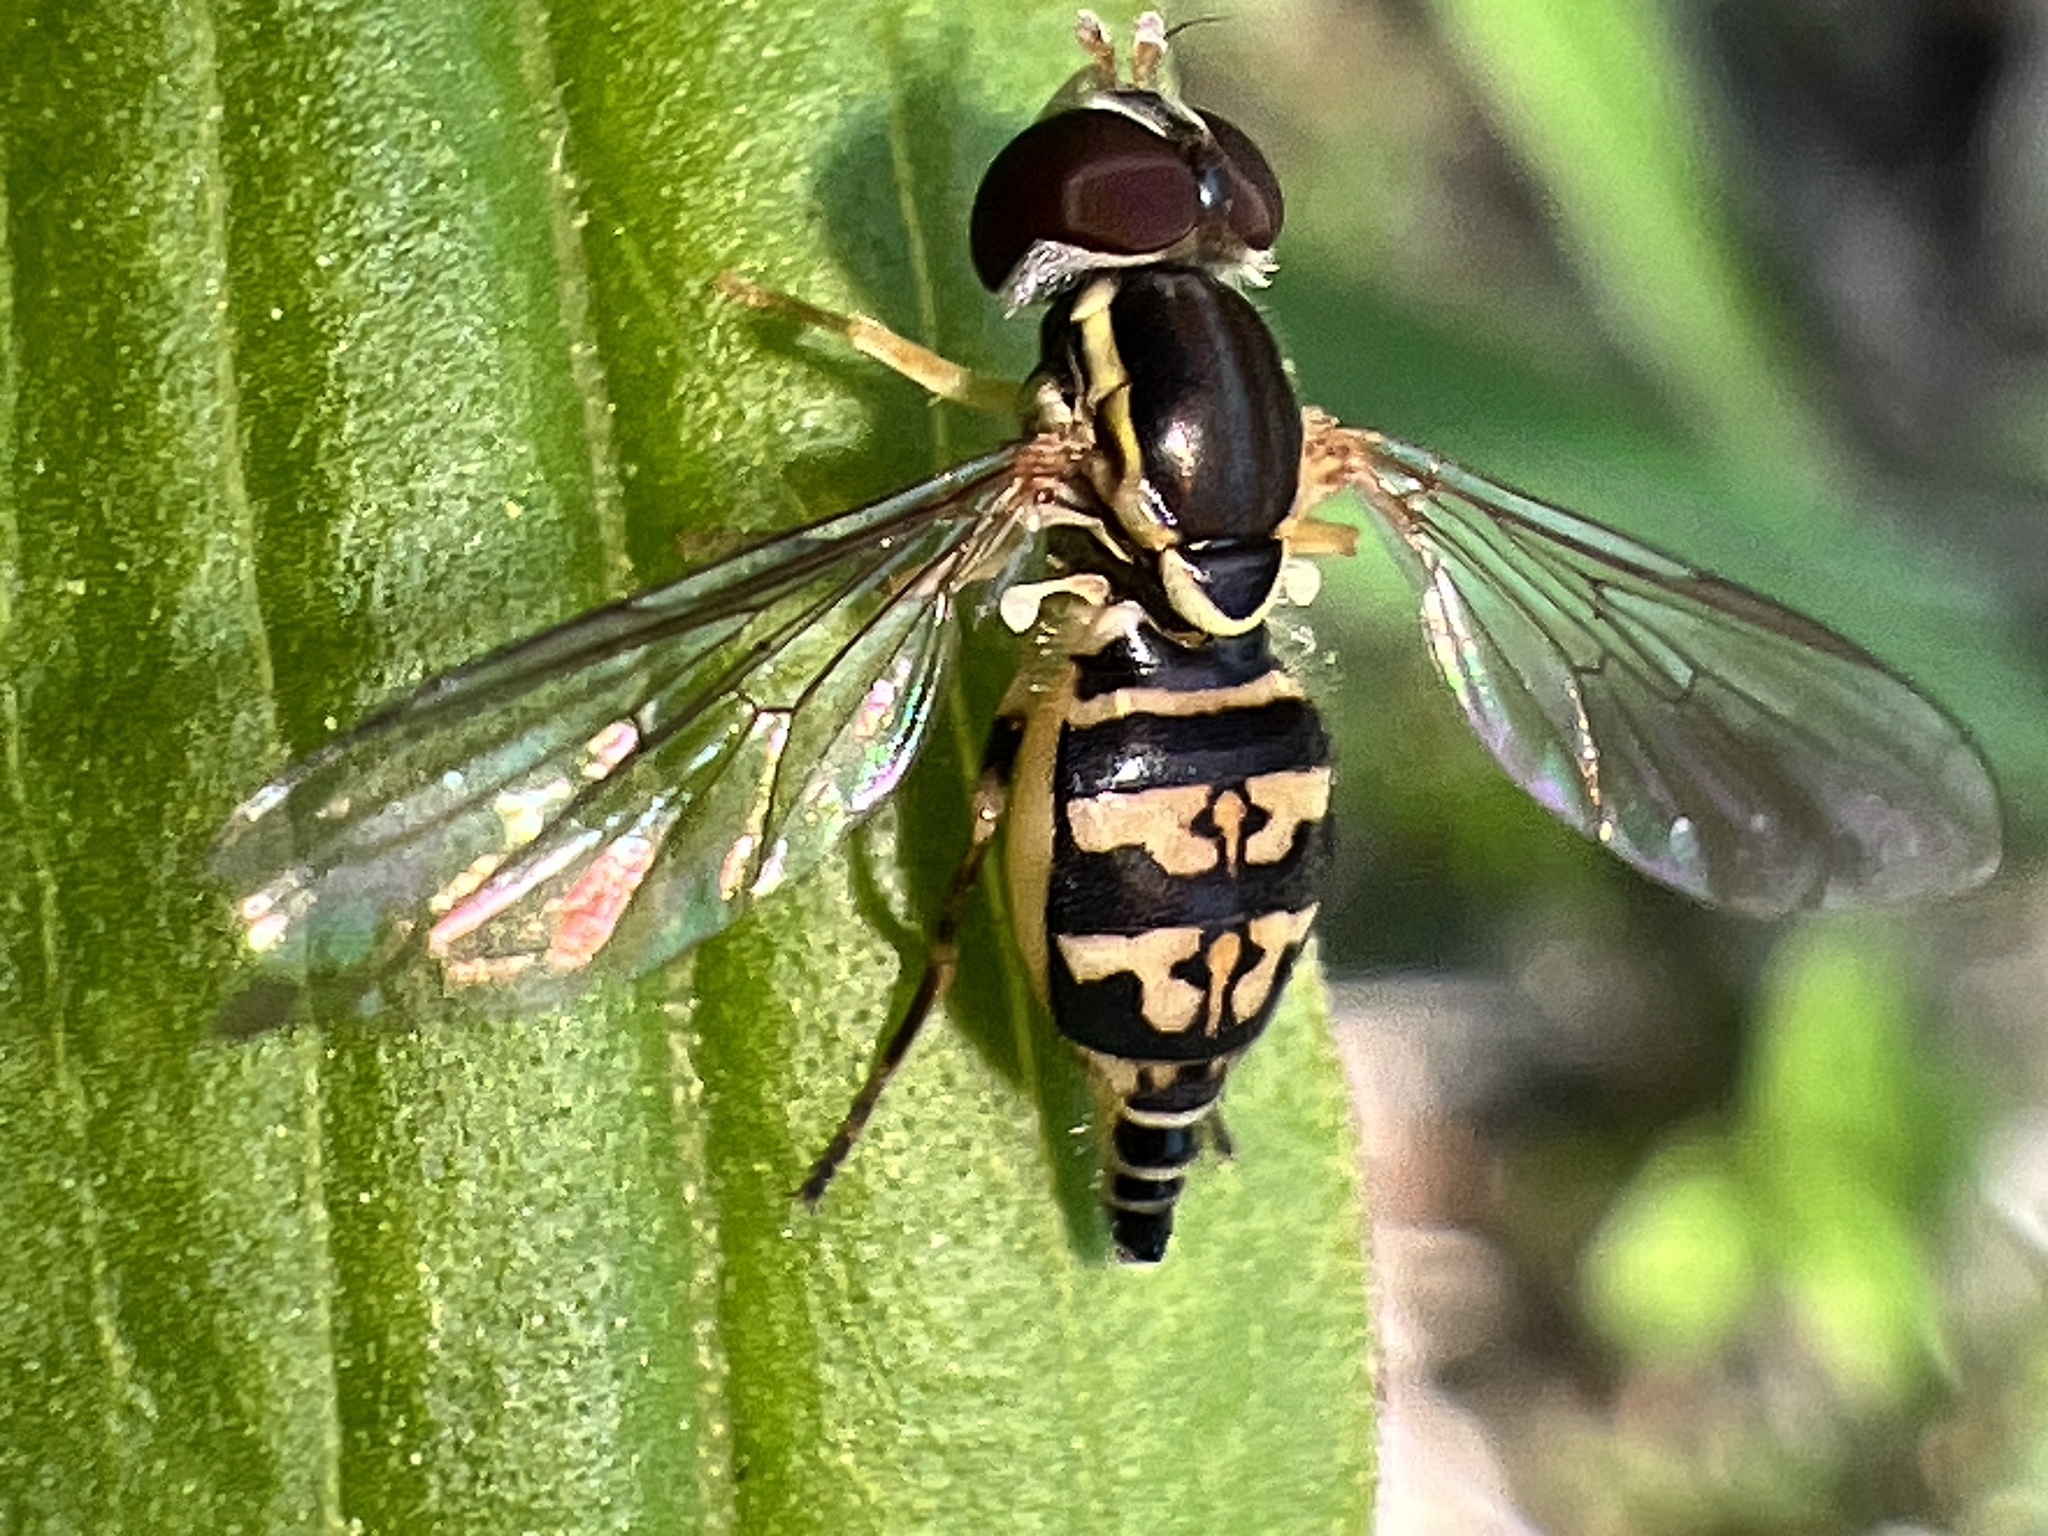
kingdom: Animalia
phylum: Arthropoda
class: Insecta
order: Diptera
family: Syrphidae
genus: Toxomerus
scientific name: Toxomerus geminatus
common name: Eastern calligrapher
